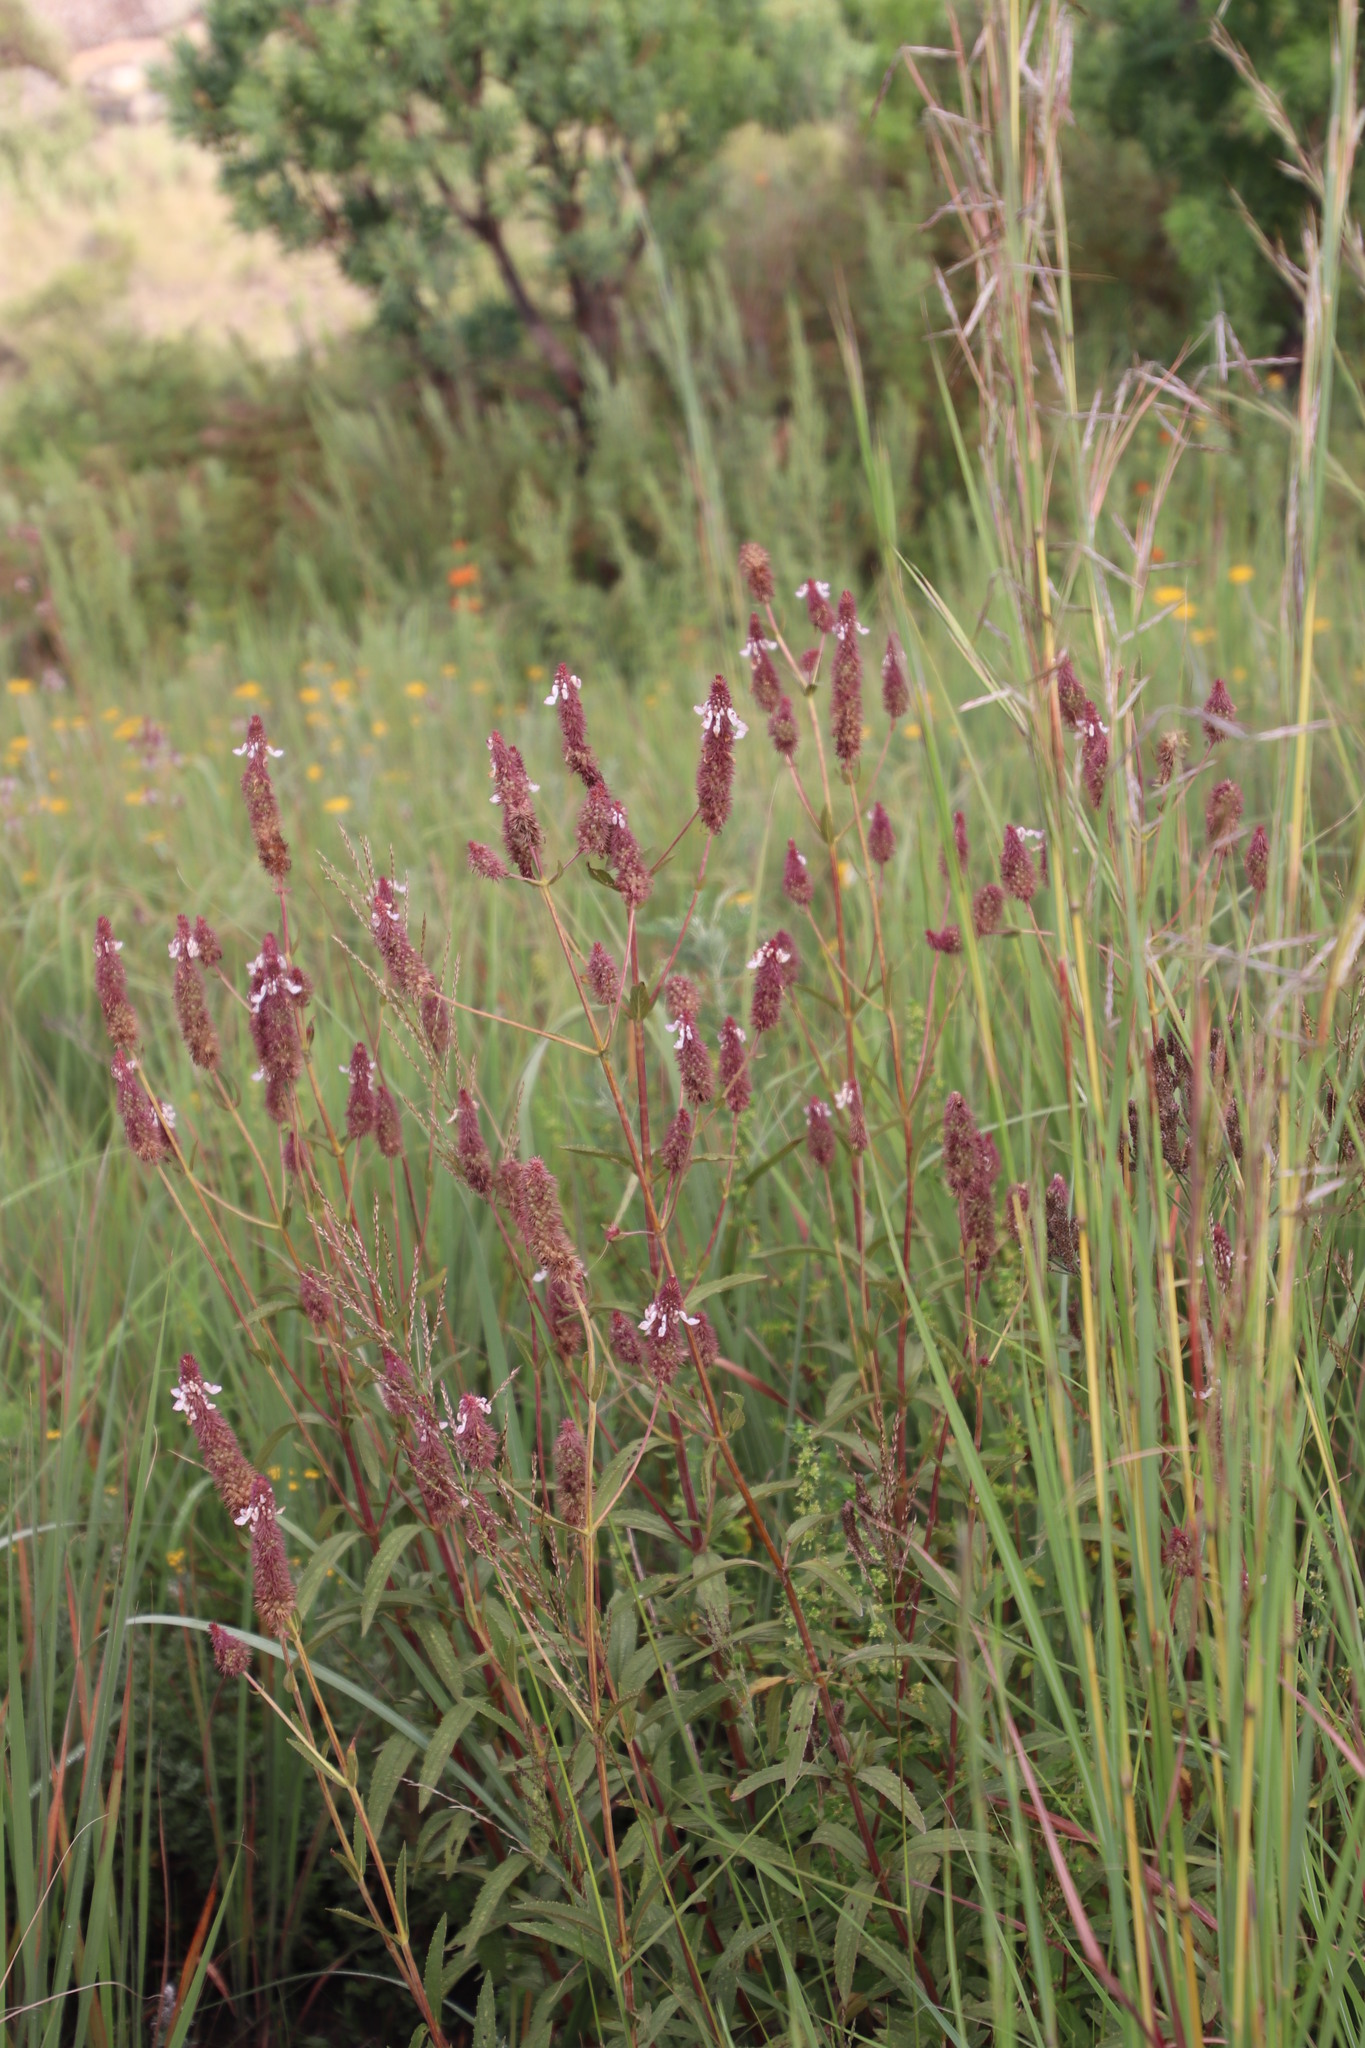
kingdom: Plantae
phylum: Tracheophyta
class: Magnoliopsida
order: Lamiales
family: Lamiaceae
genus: Coleus
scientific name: Coleus kirkii
